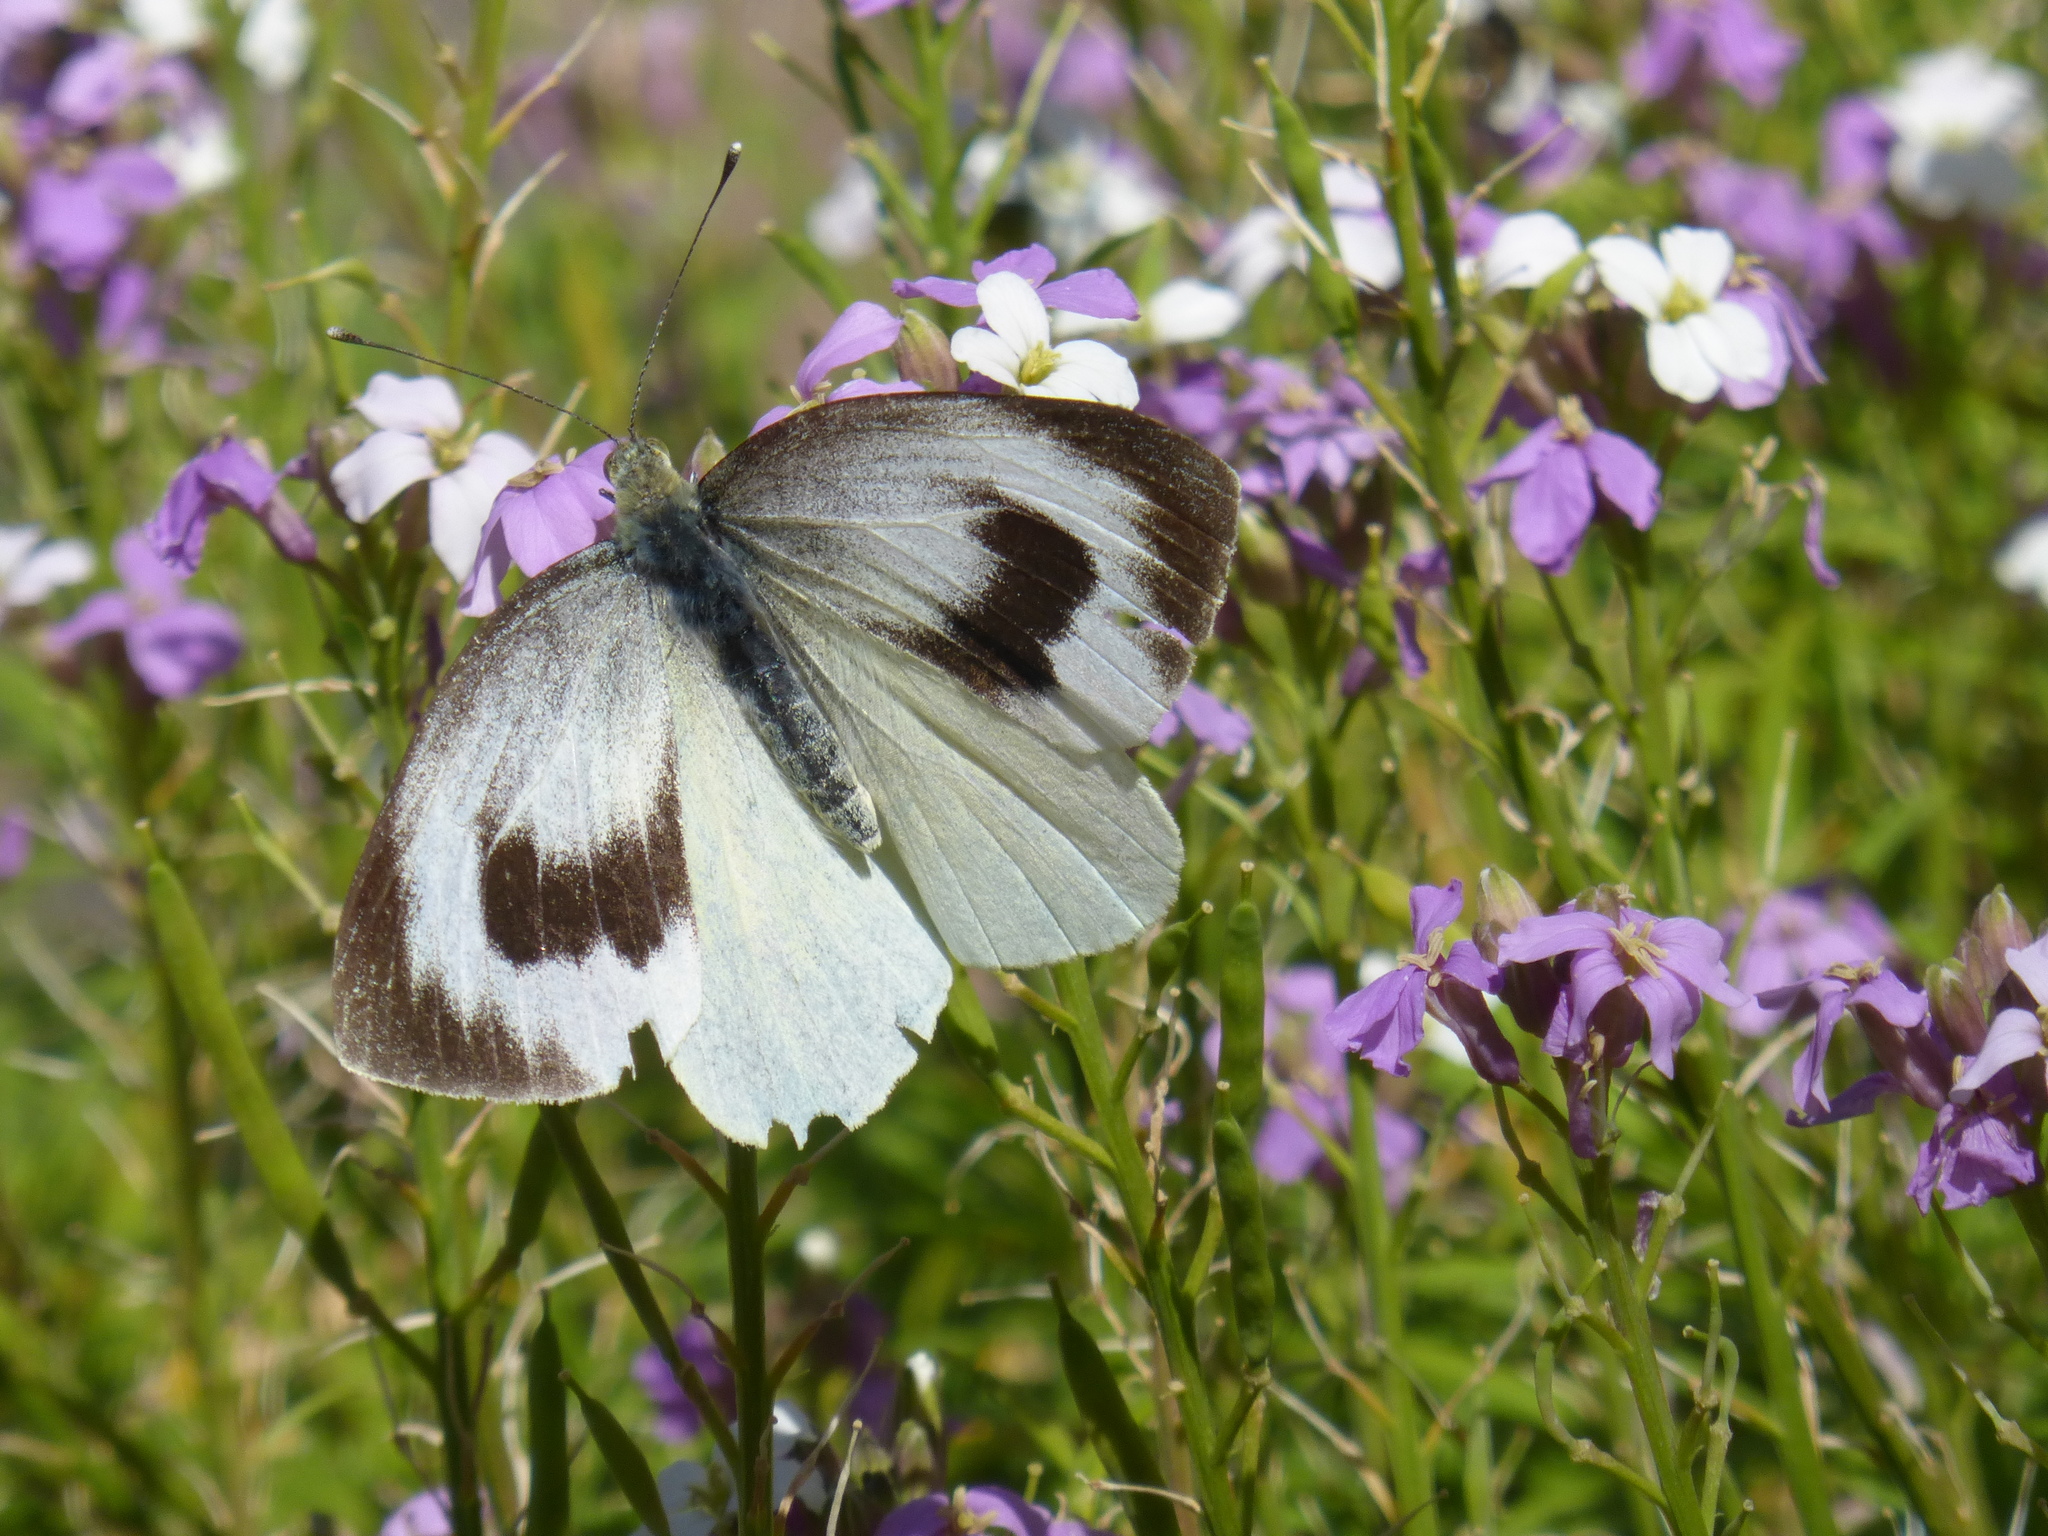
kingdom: Animalia
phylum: Arthropoda
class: Insecta
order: Lepidoptera
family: Pieridae
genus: Pieris
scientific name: Pieris cheiranthi
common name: Canary islands large white
